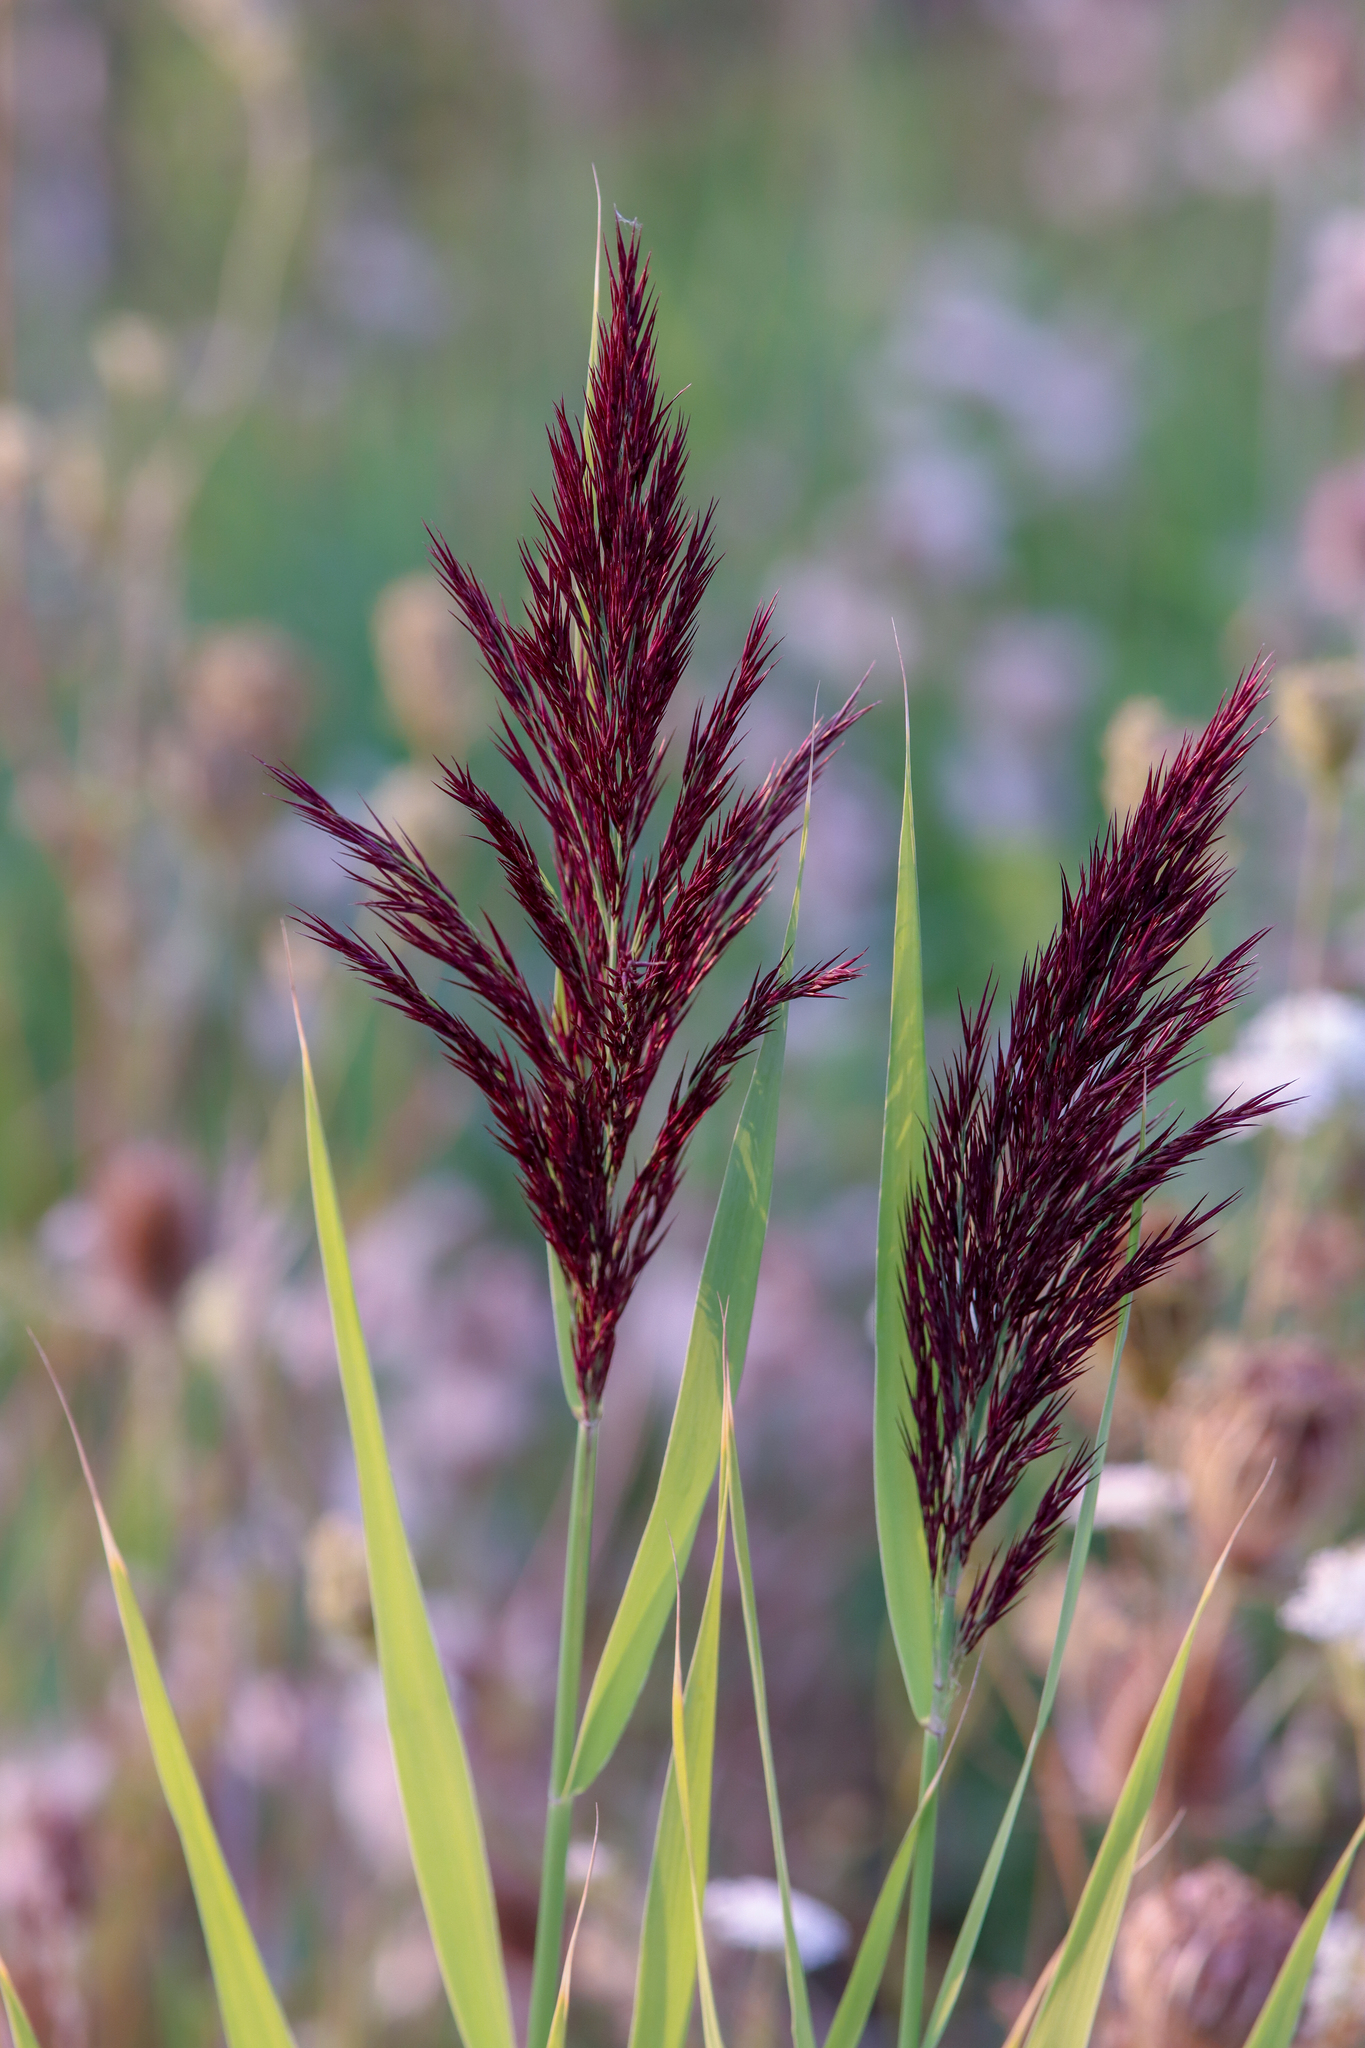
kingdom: Plantae
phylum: Tracheophyta
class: Liliopsida
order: Poales
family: Poaceae
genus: Phragmites
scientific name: Phragmites australis
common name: Common reed
